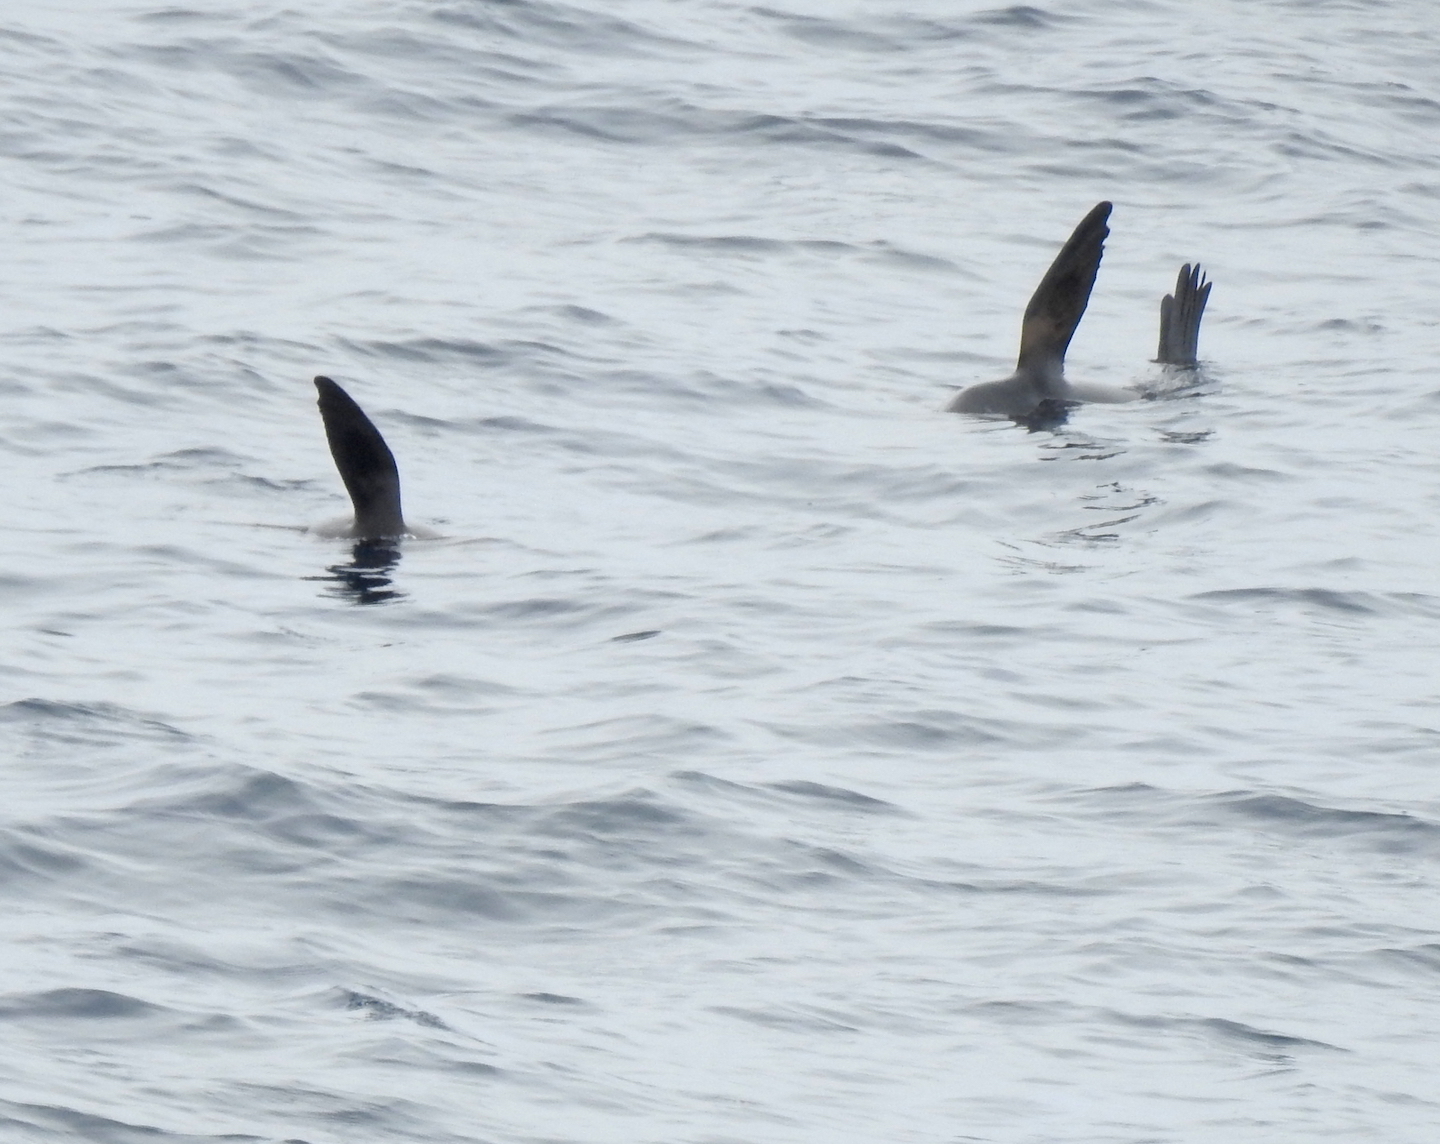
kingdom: Animalia
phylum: Chordata
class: Mammalia
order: Carnivora
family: Otariidae
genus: Arctocephalus
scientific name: Arctocephalus philippii
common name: Juan fernández fur seal
